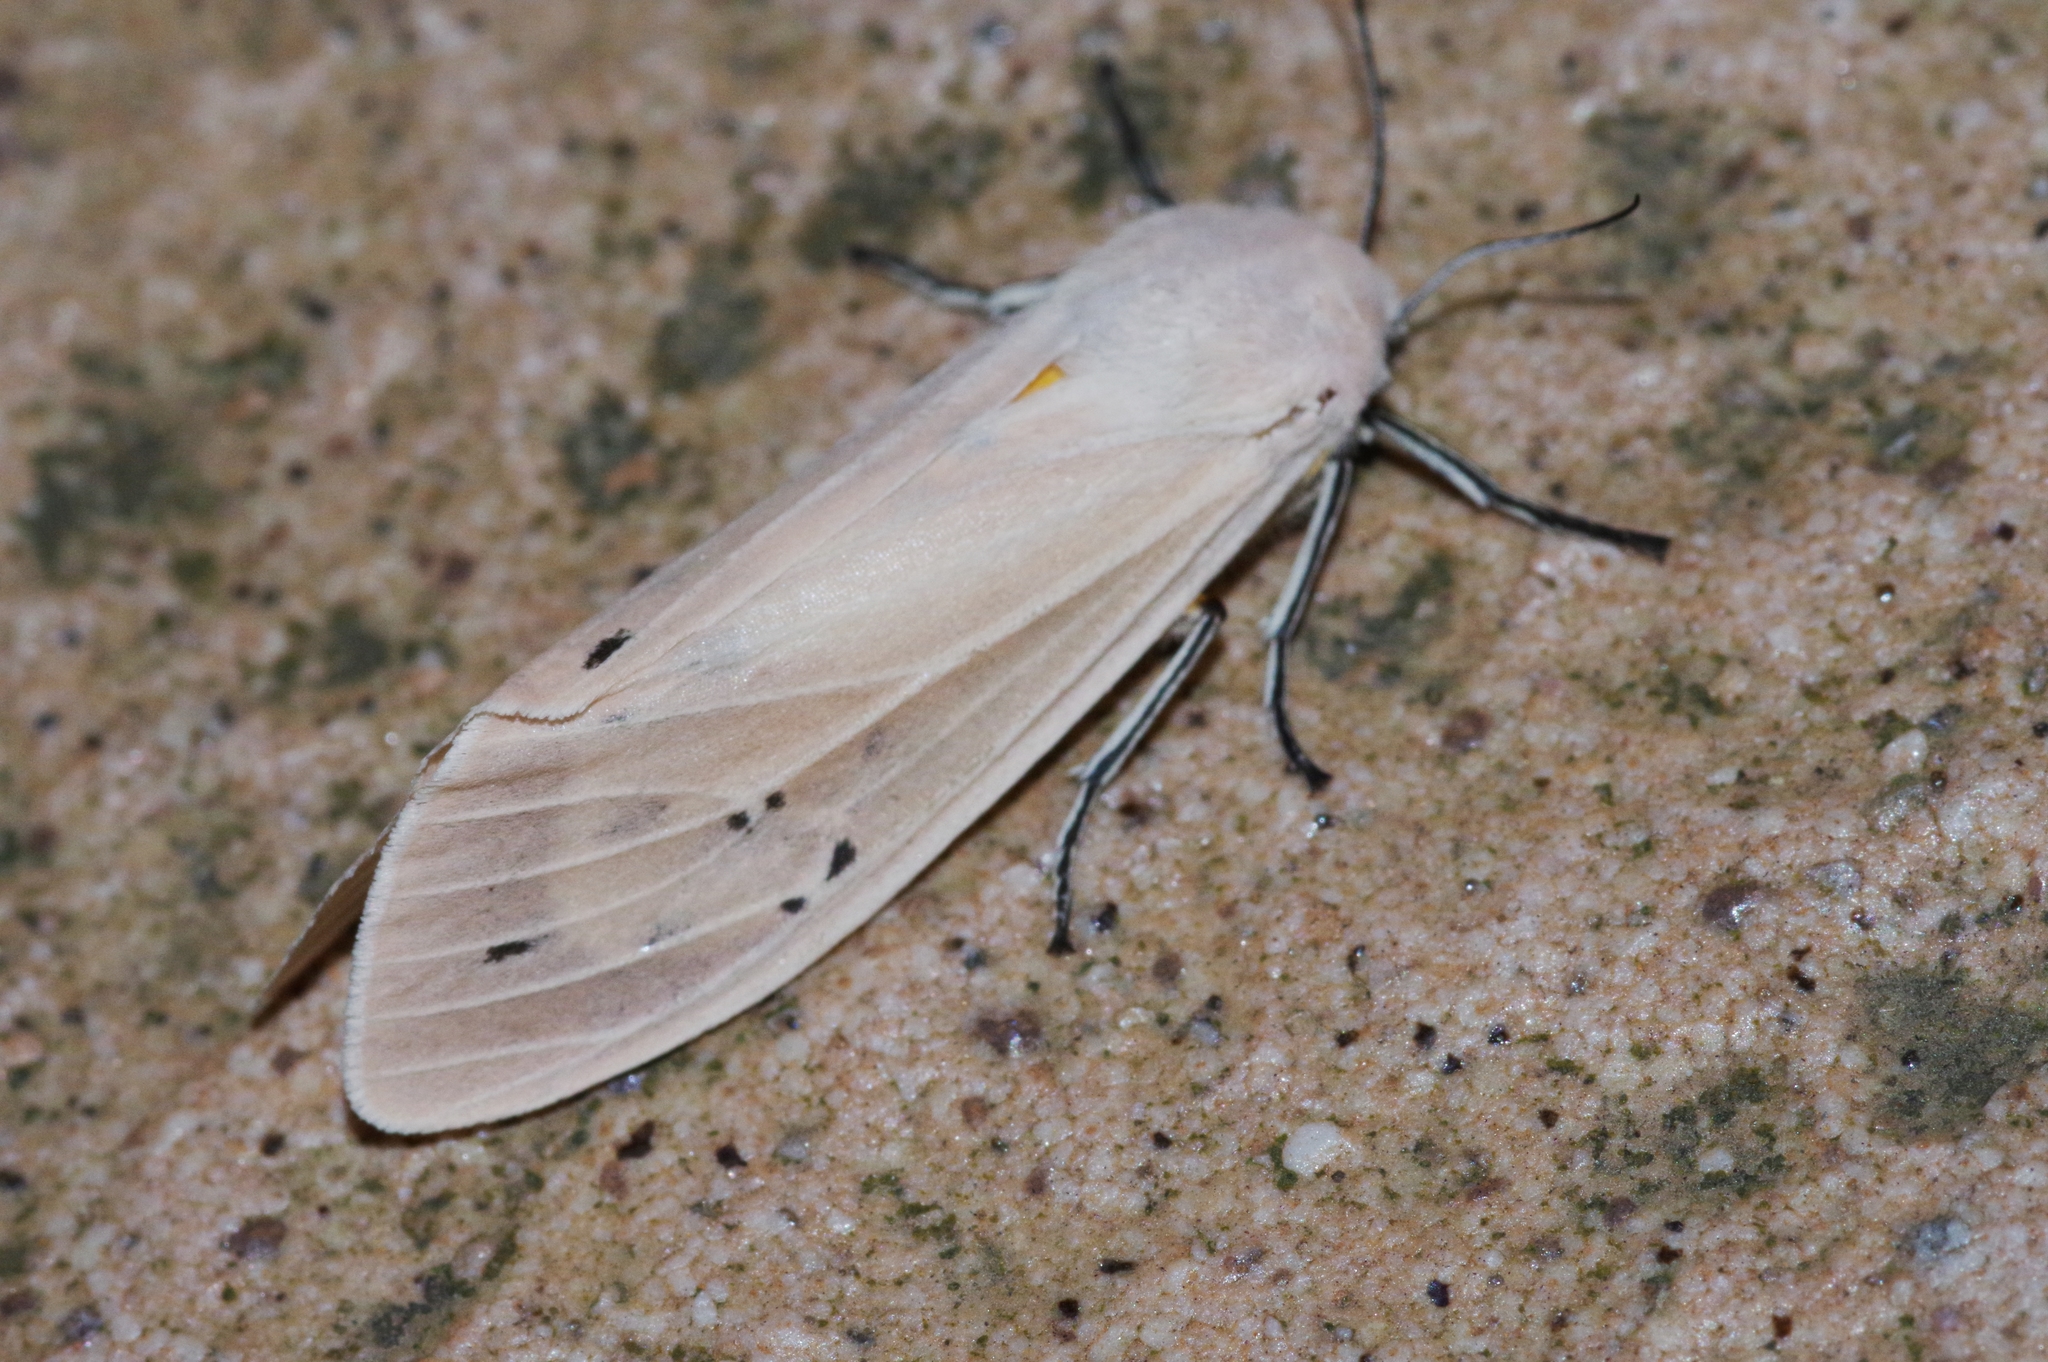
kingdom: Animalia
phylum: Arthropoda
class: Insecta
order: Lepidoptera
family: Erebidae
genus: Creatonotos
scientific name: Creatonotos transiens
